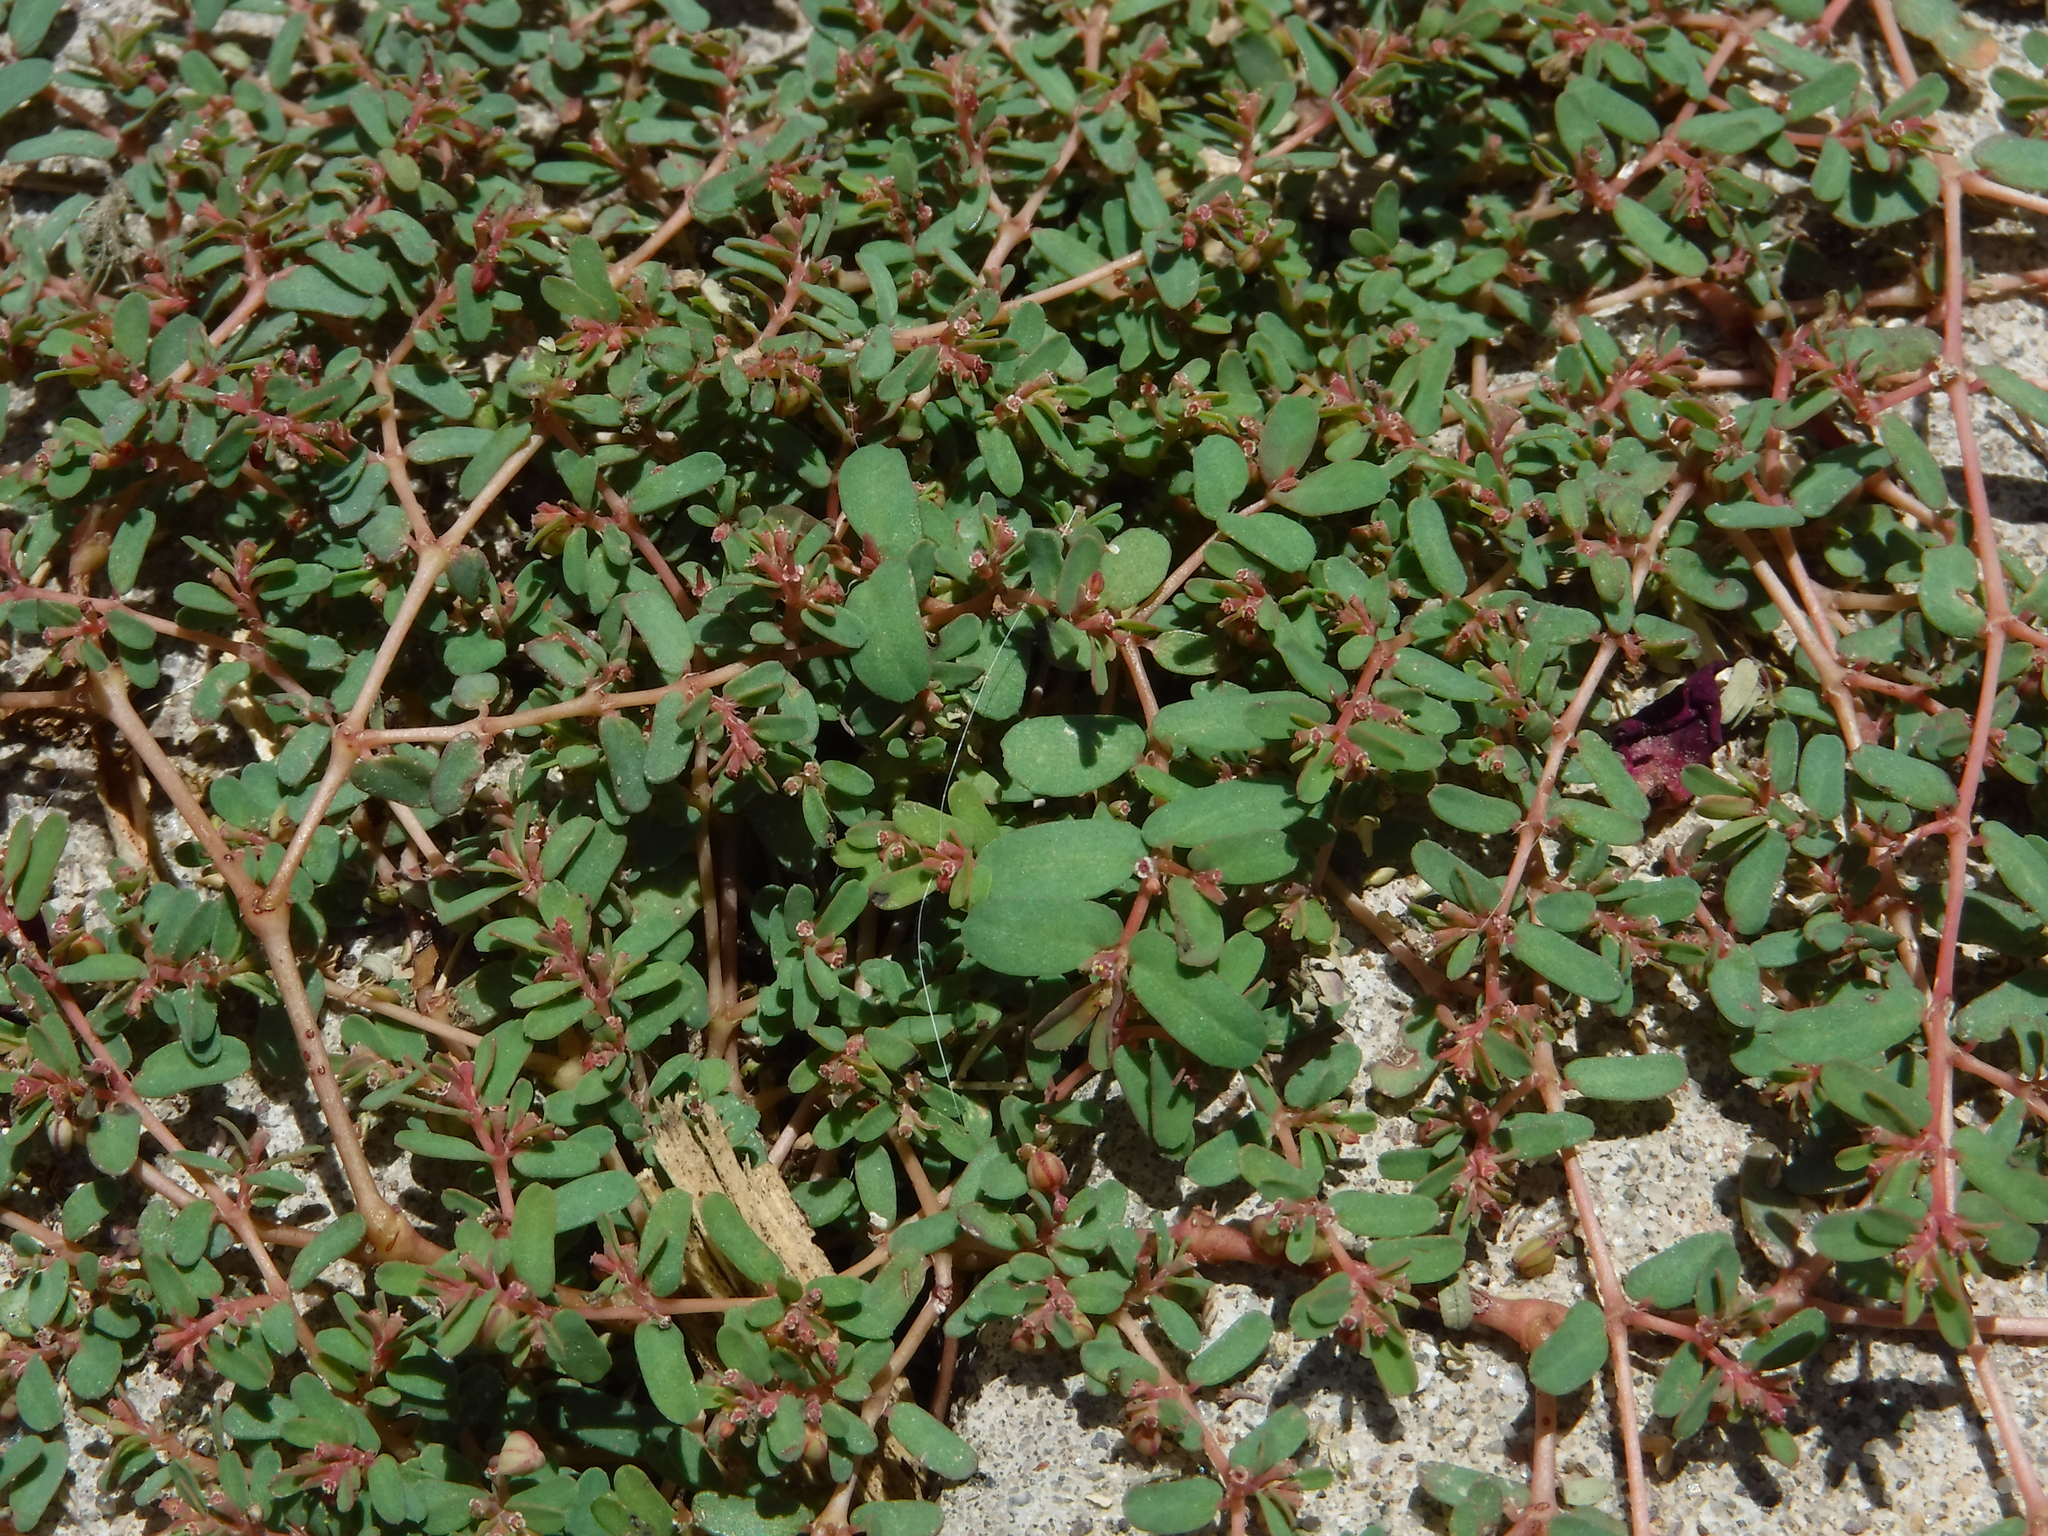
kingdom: Plantae
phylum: Tracheophyta
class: Magnoliopsida
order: Malpighiales
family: Euphorbiaceae
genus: Euphorbia
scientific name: Euphorbia glyptosperma
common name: Corrugate-seeded spurge
